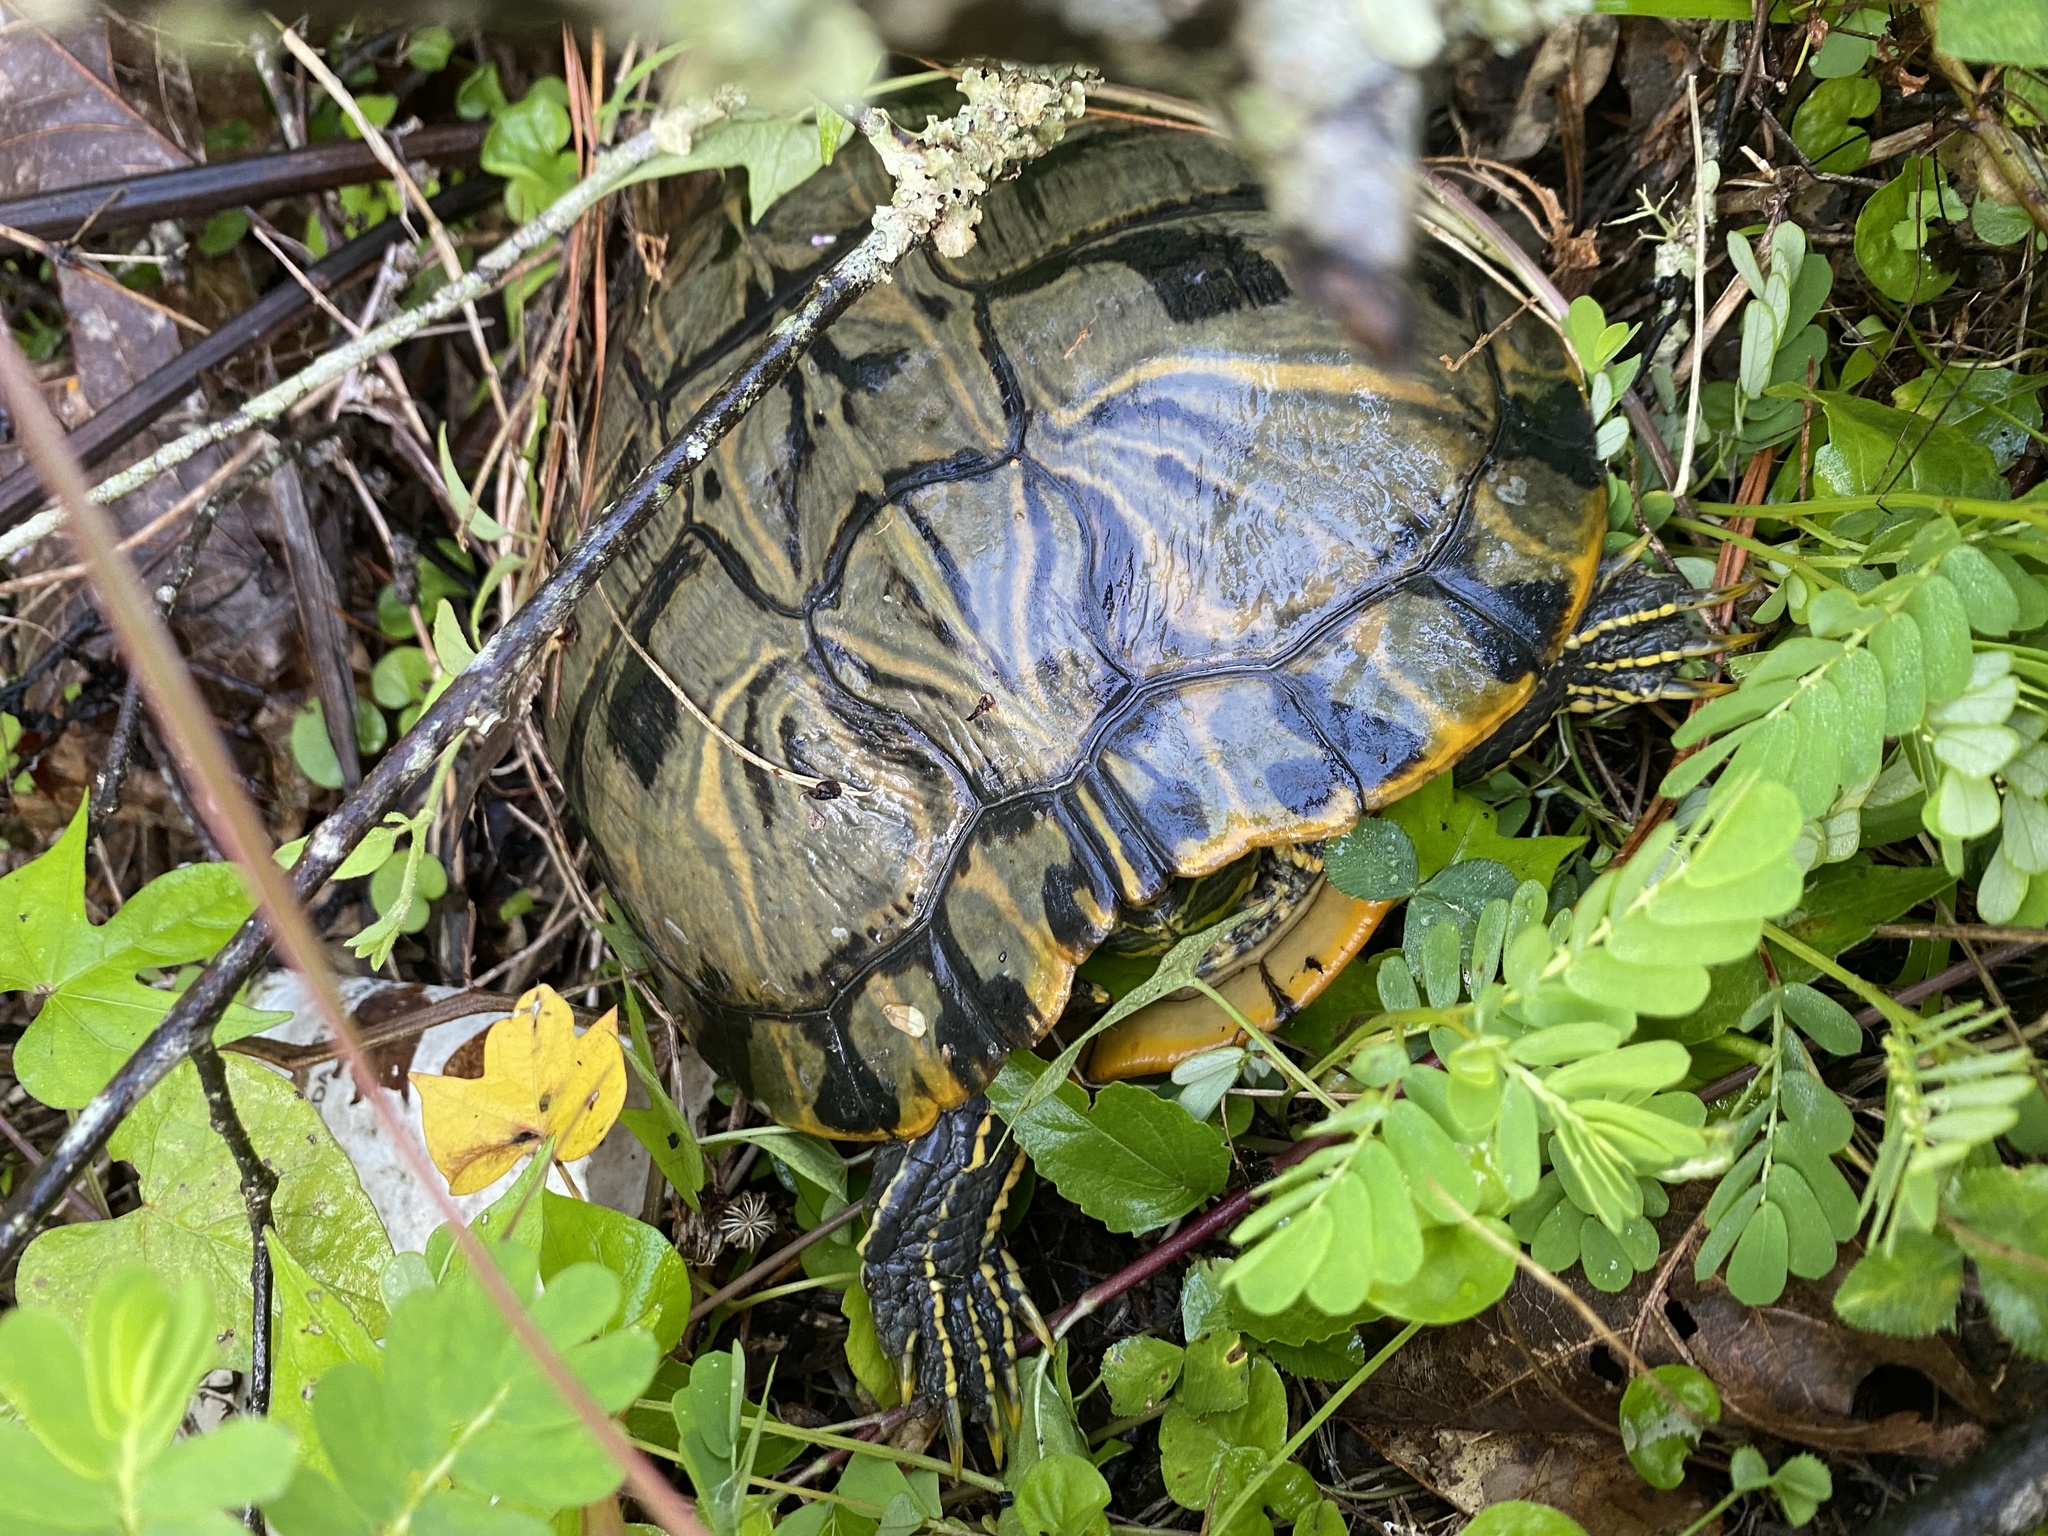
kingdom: Animalia
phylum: Chordata
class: Testudines
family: Emydidae
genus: Trachemys
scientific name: Trachemys scripta
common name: Slider
